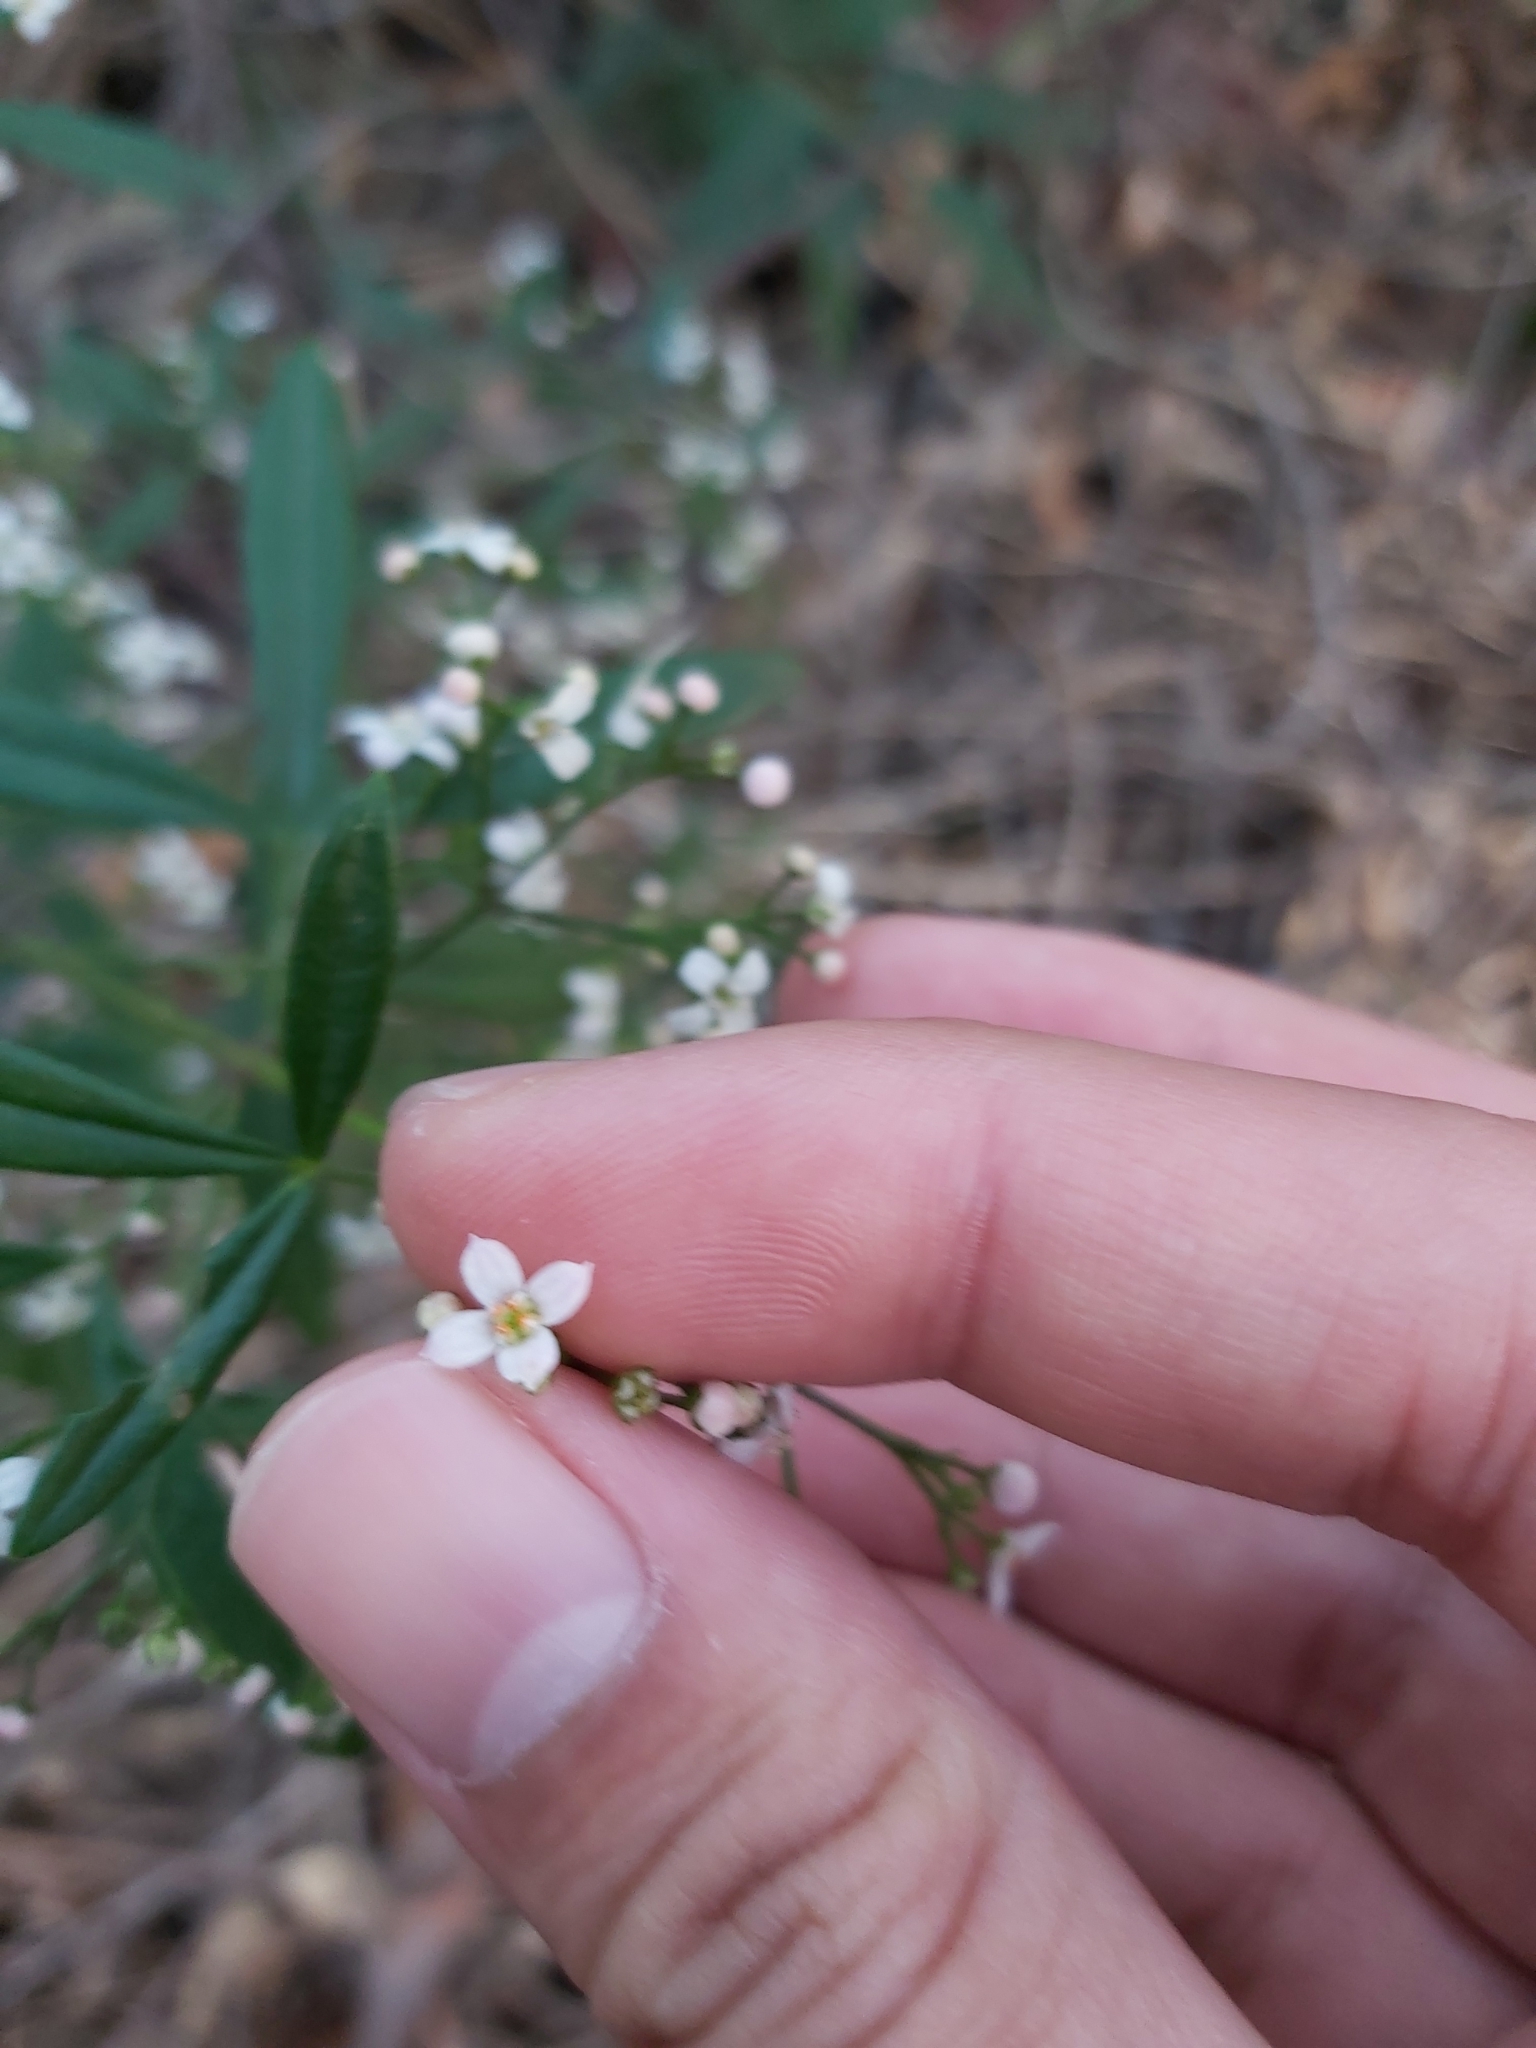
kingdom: Plantae
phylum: Tracheophyta
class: Magnoliopsida
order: Sapindales
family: Rutaceae
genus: Zieria
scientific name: Zieria smithii
